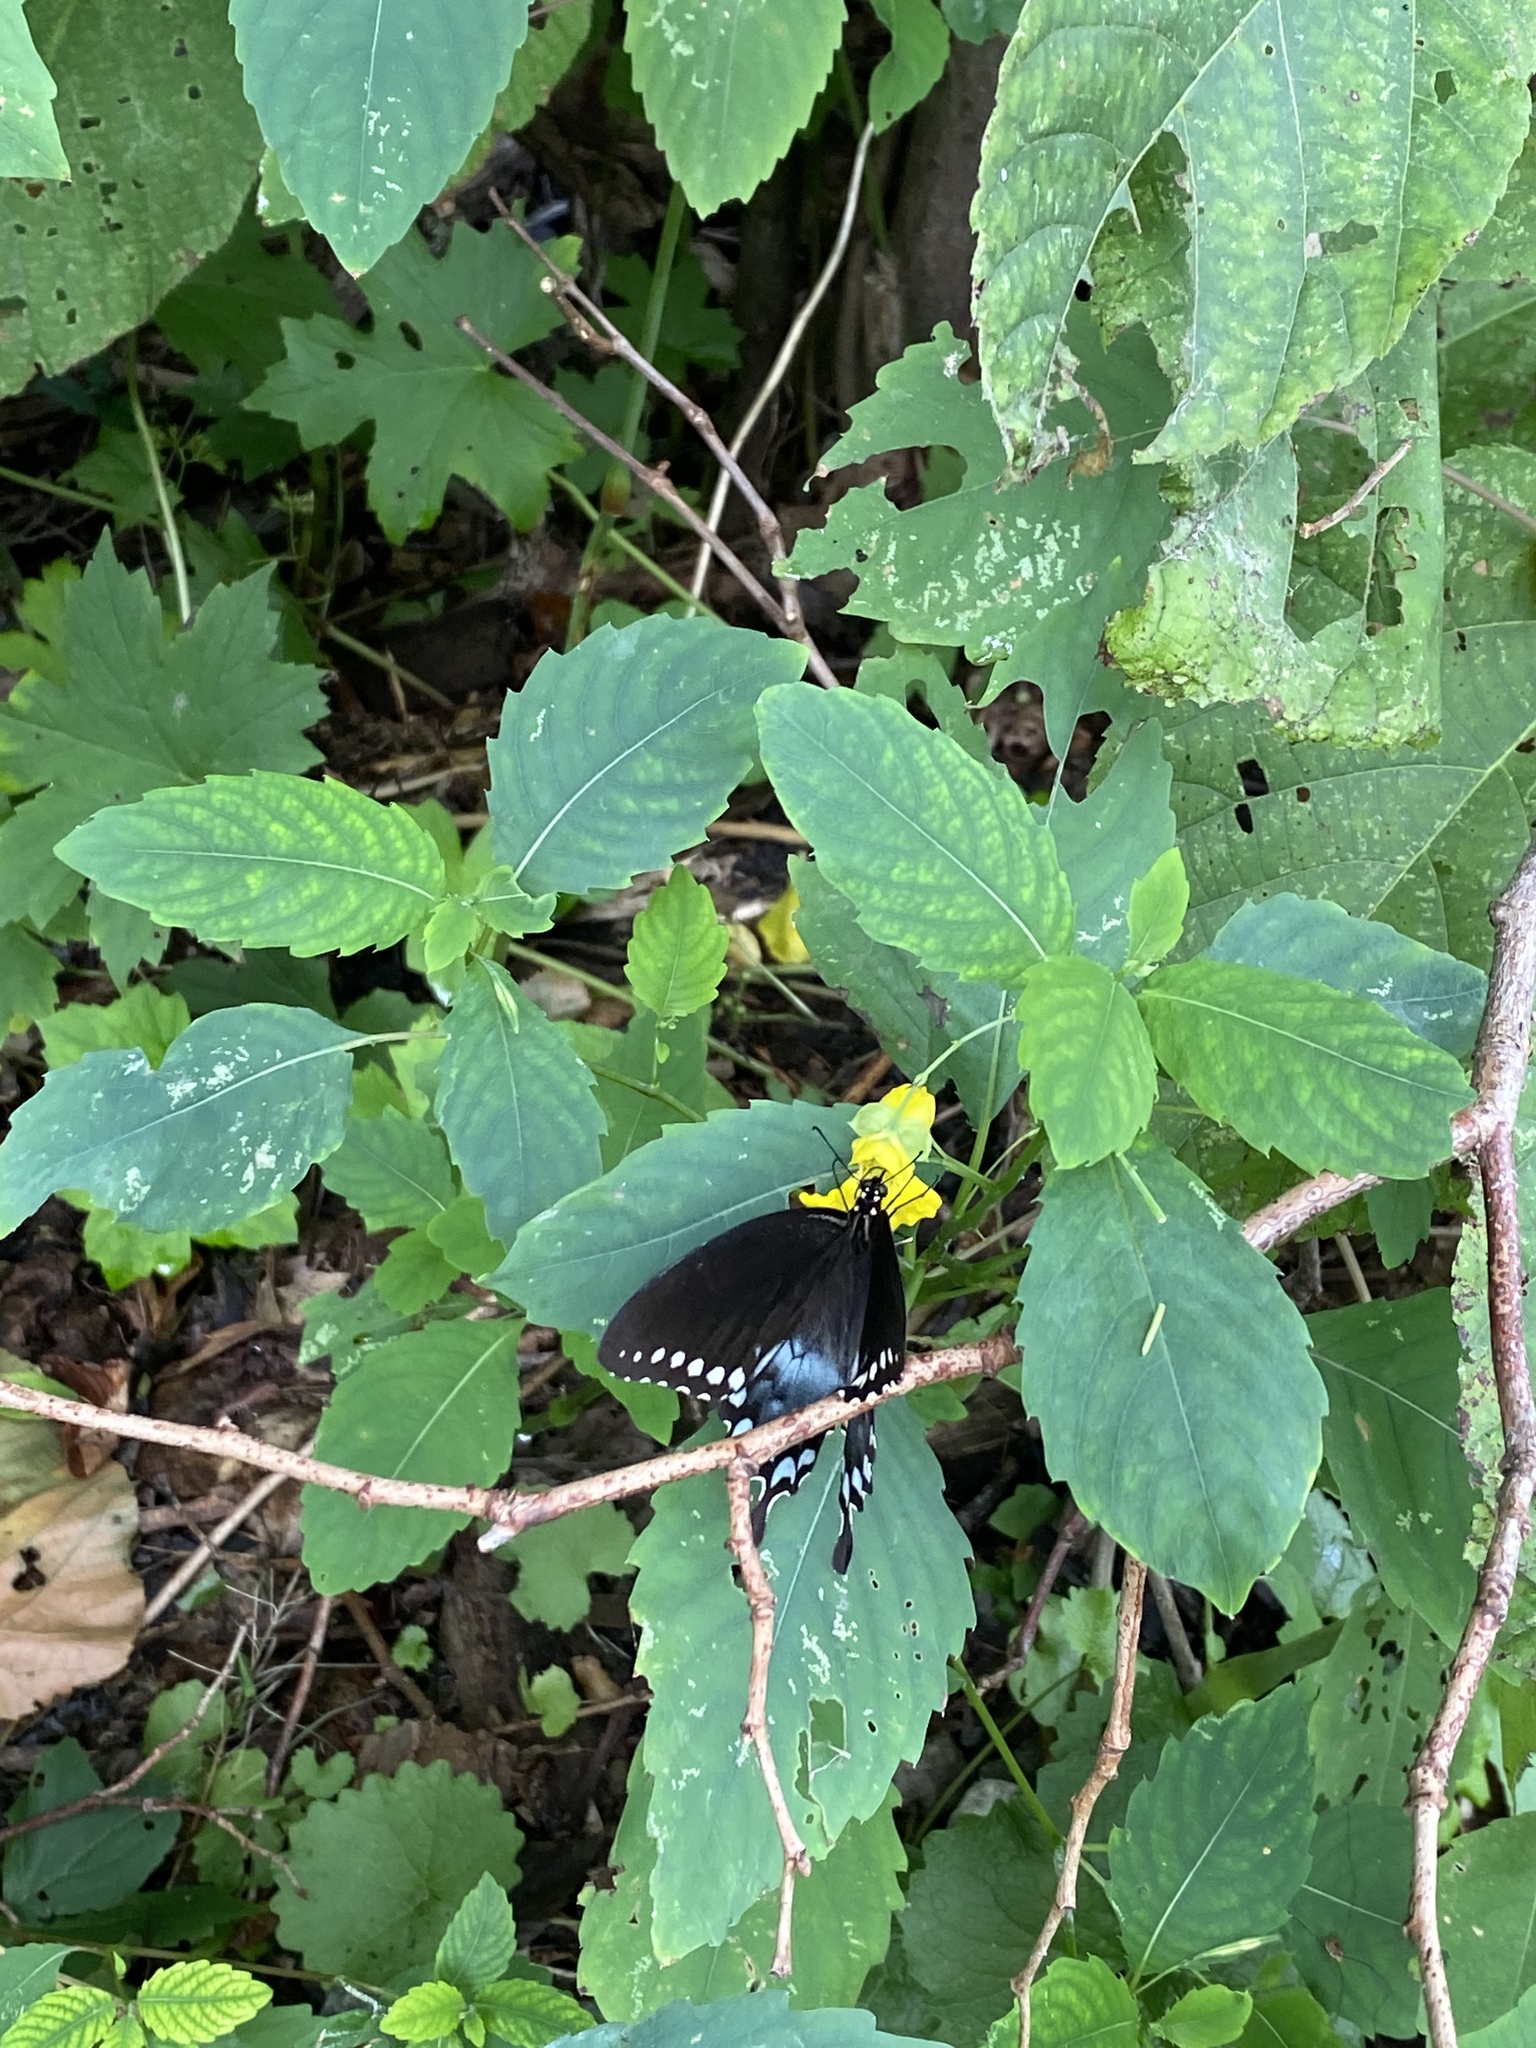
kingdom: Animalia
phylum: Arthropoda
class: Insecta
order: Lepidoptera
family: Papilionidae
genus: Papilio
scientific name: Papilio troilus
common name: Spicebush swallowtail
